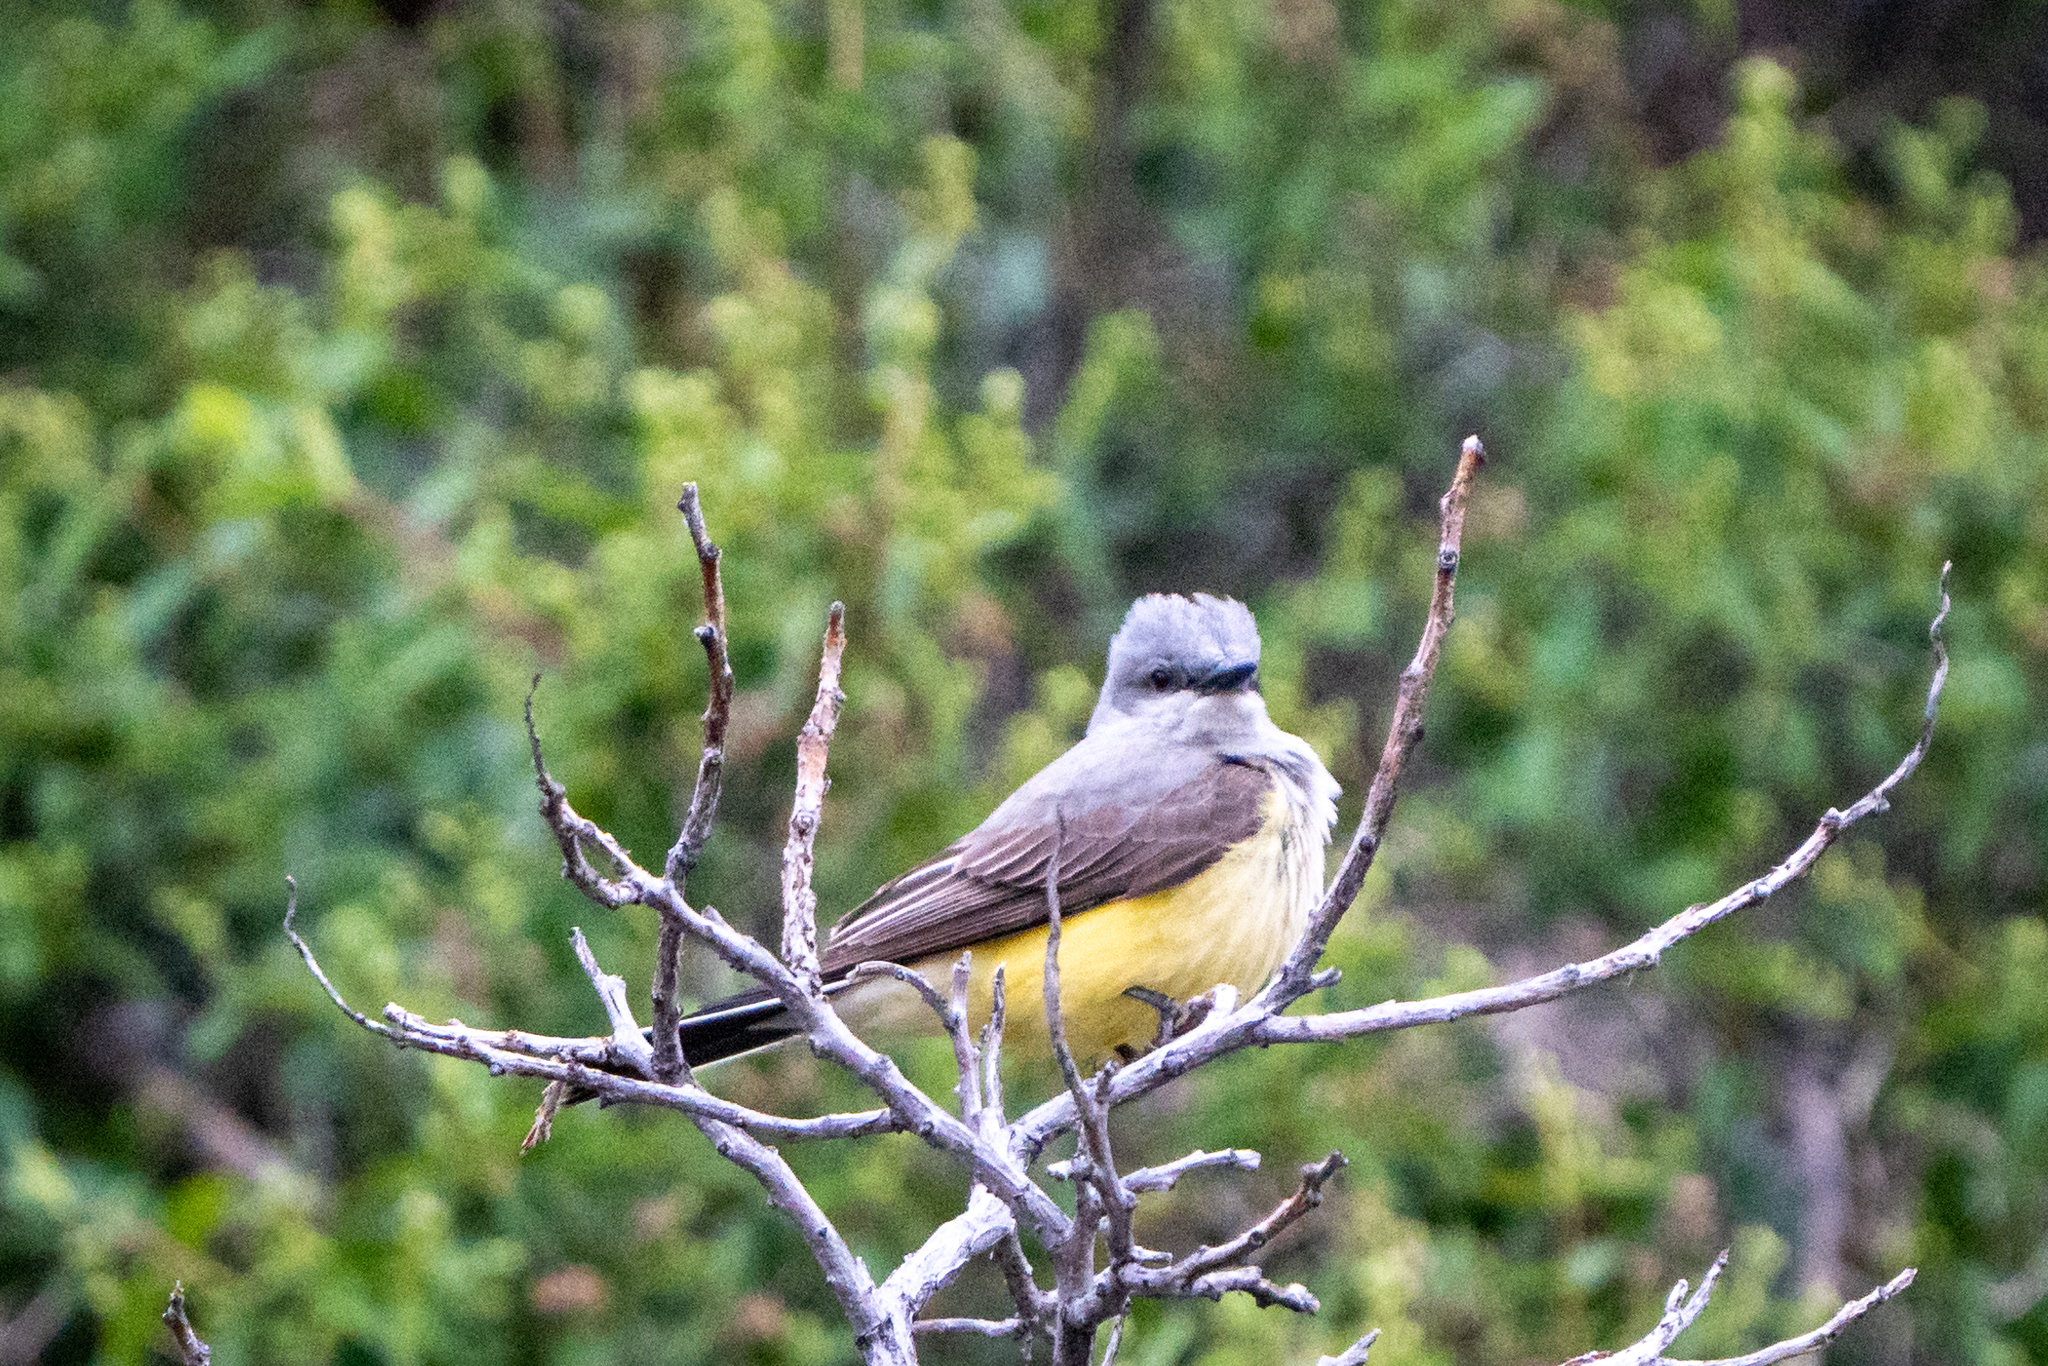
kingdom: Animalia
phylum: Chordata
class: Aves
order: Passeriformes
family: Tyrannidae
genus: Tyrannus
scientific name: Tyrannus verticalis
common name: Western kingbird
